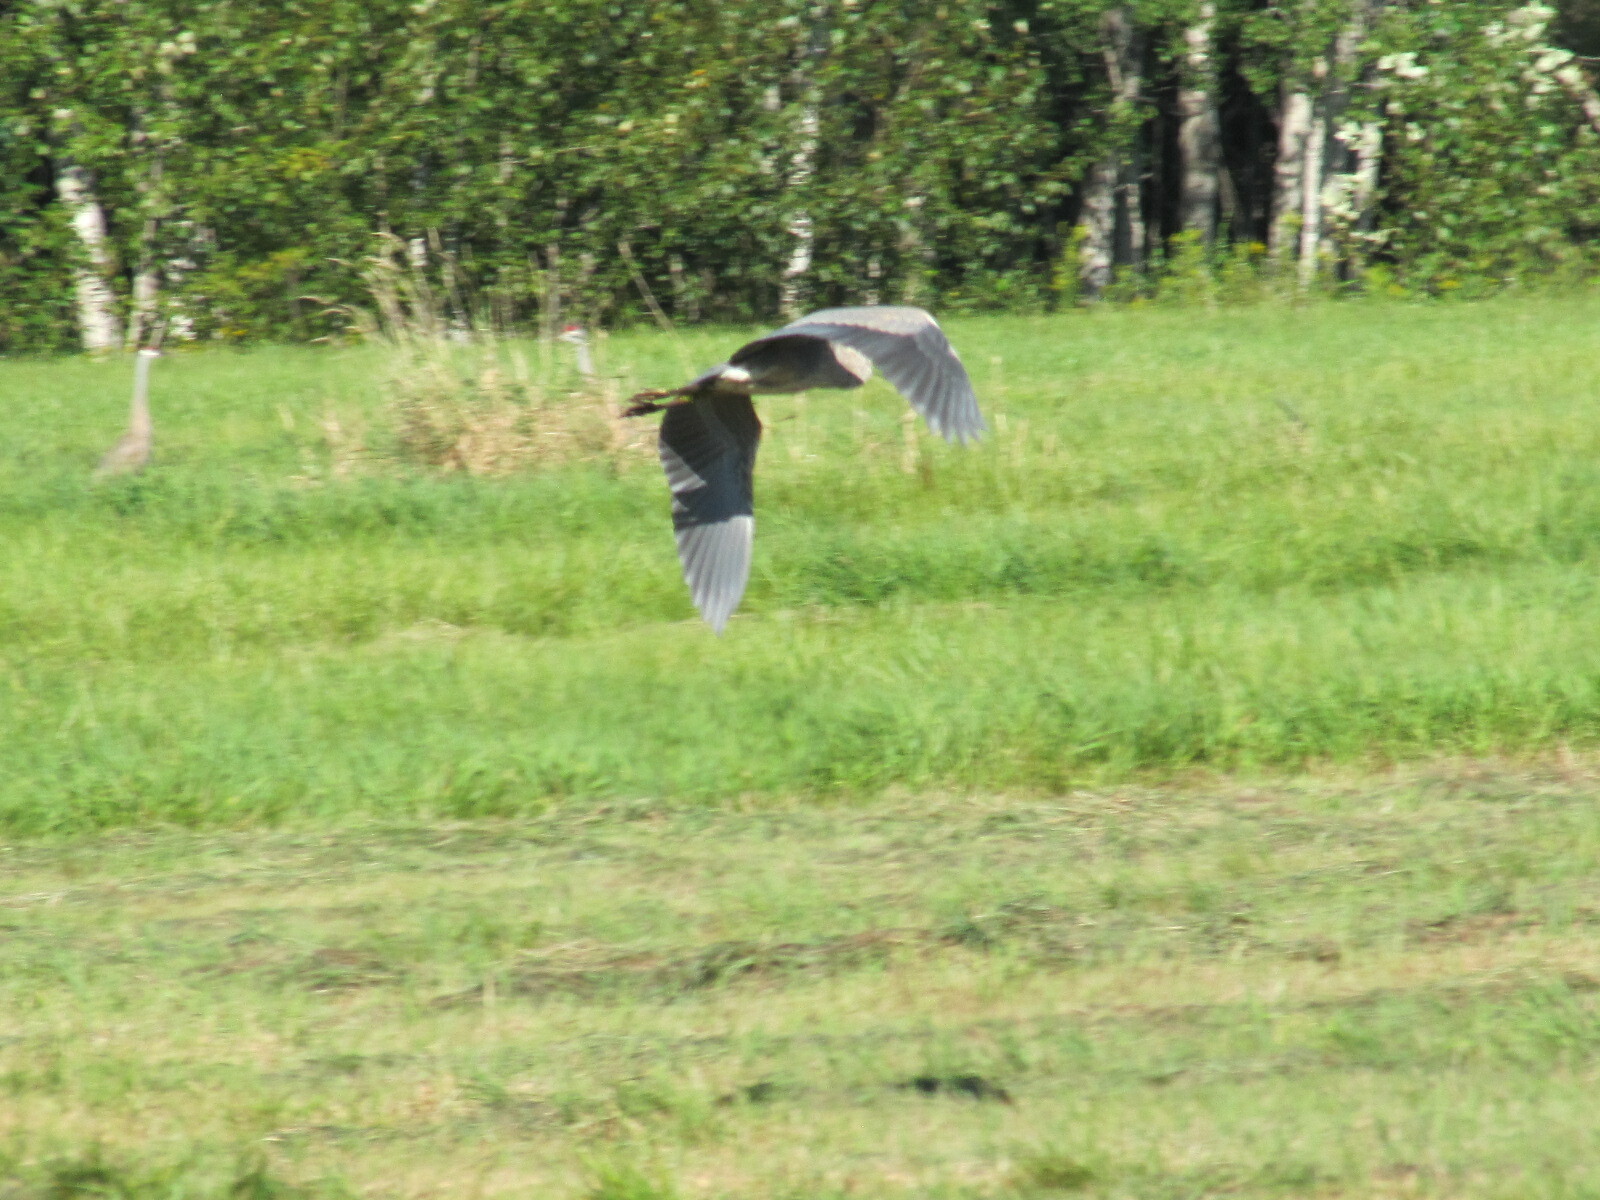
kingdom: Animalia
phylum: Chordata
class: Aves
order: Pelecaniformes
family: Ardeidae
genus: Ardea
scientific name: Ardea herodias
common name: Great blue heron
